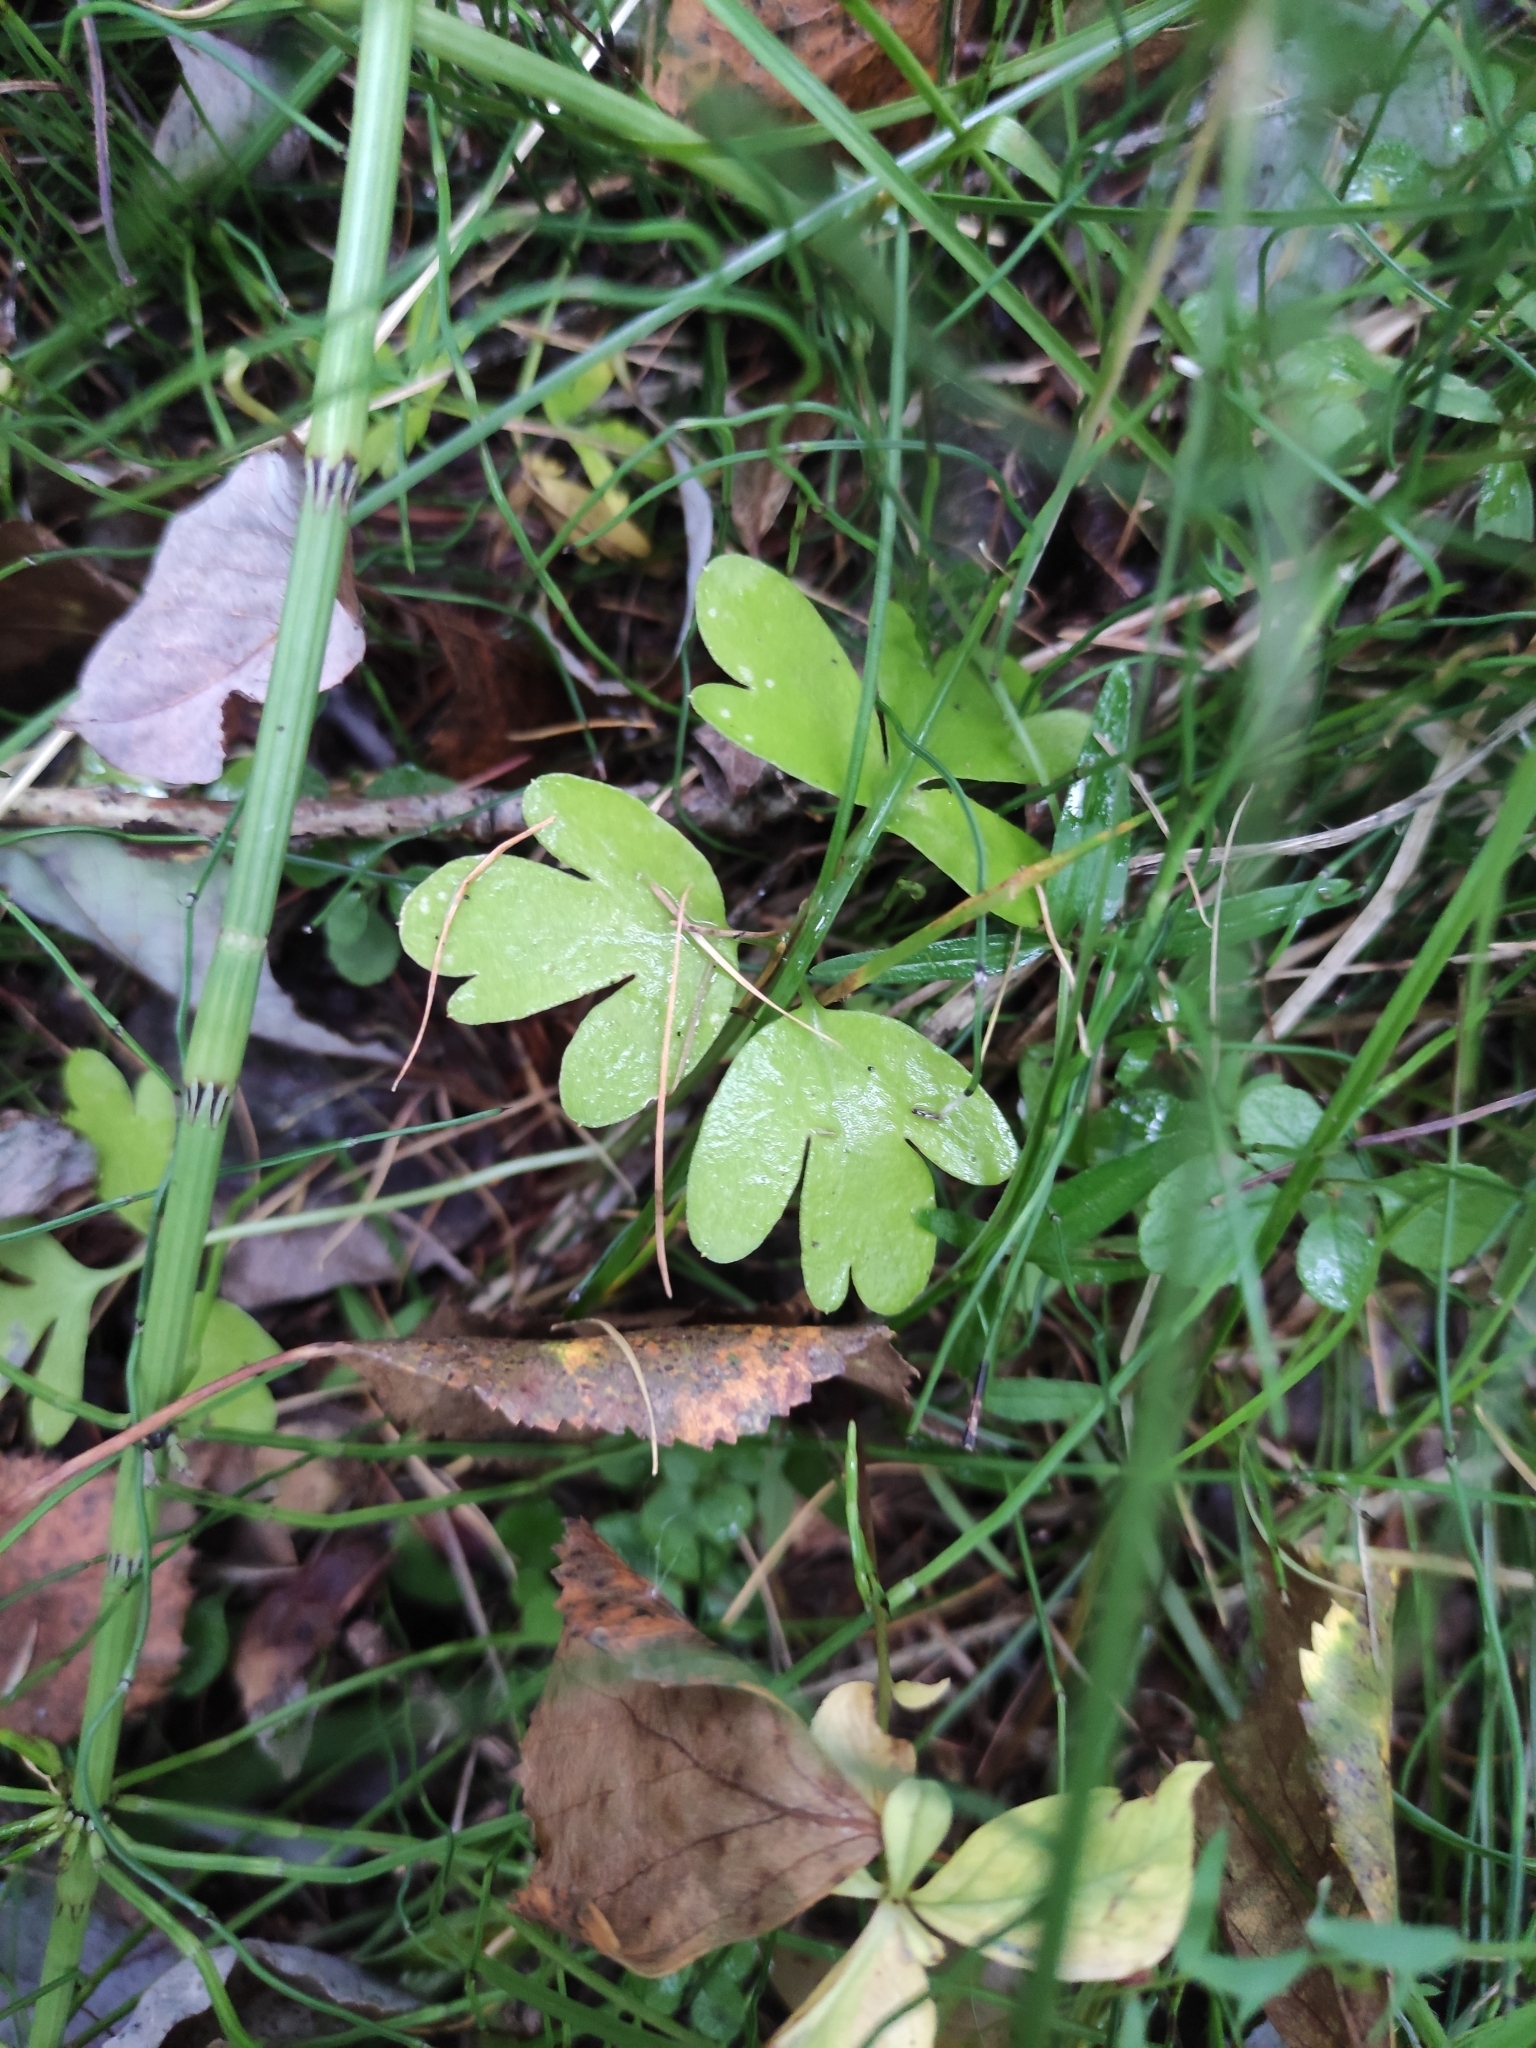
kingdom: Plantae
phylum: Tracheophyta
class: Magnoliopsida
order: Dipsacales
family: Viburnaceae
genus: Adoxa
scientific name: Adoxa moschatellina
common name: Moschatel
